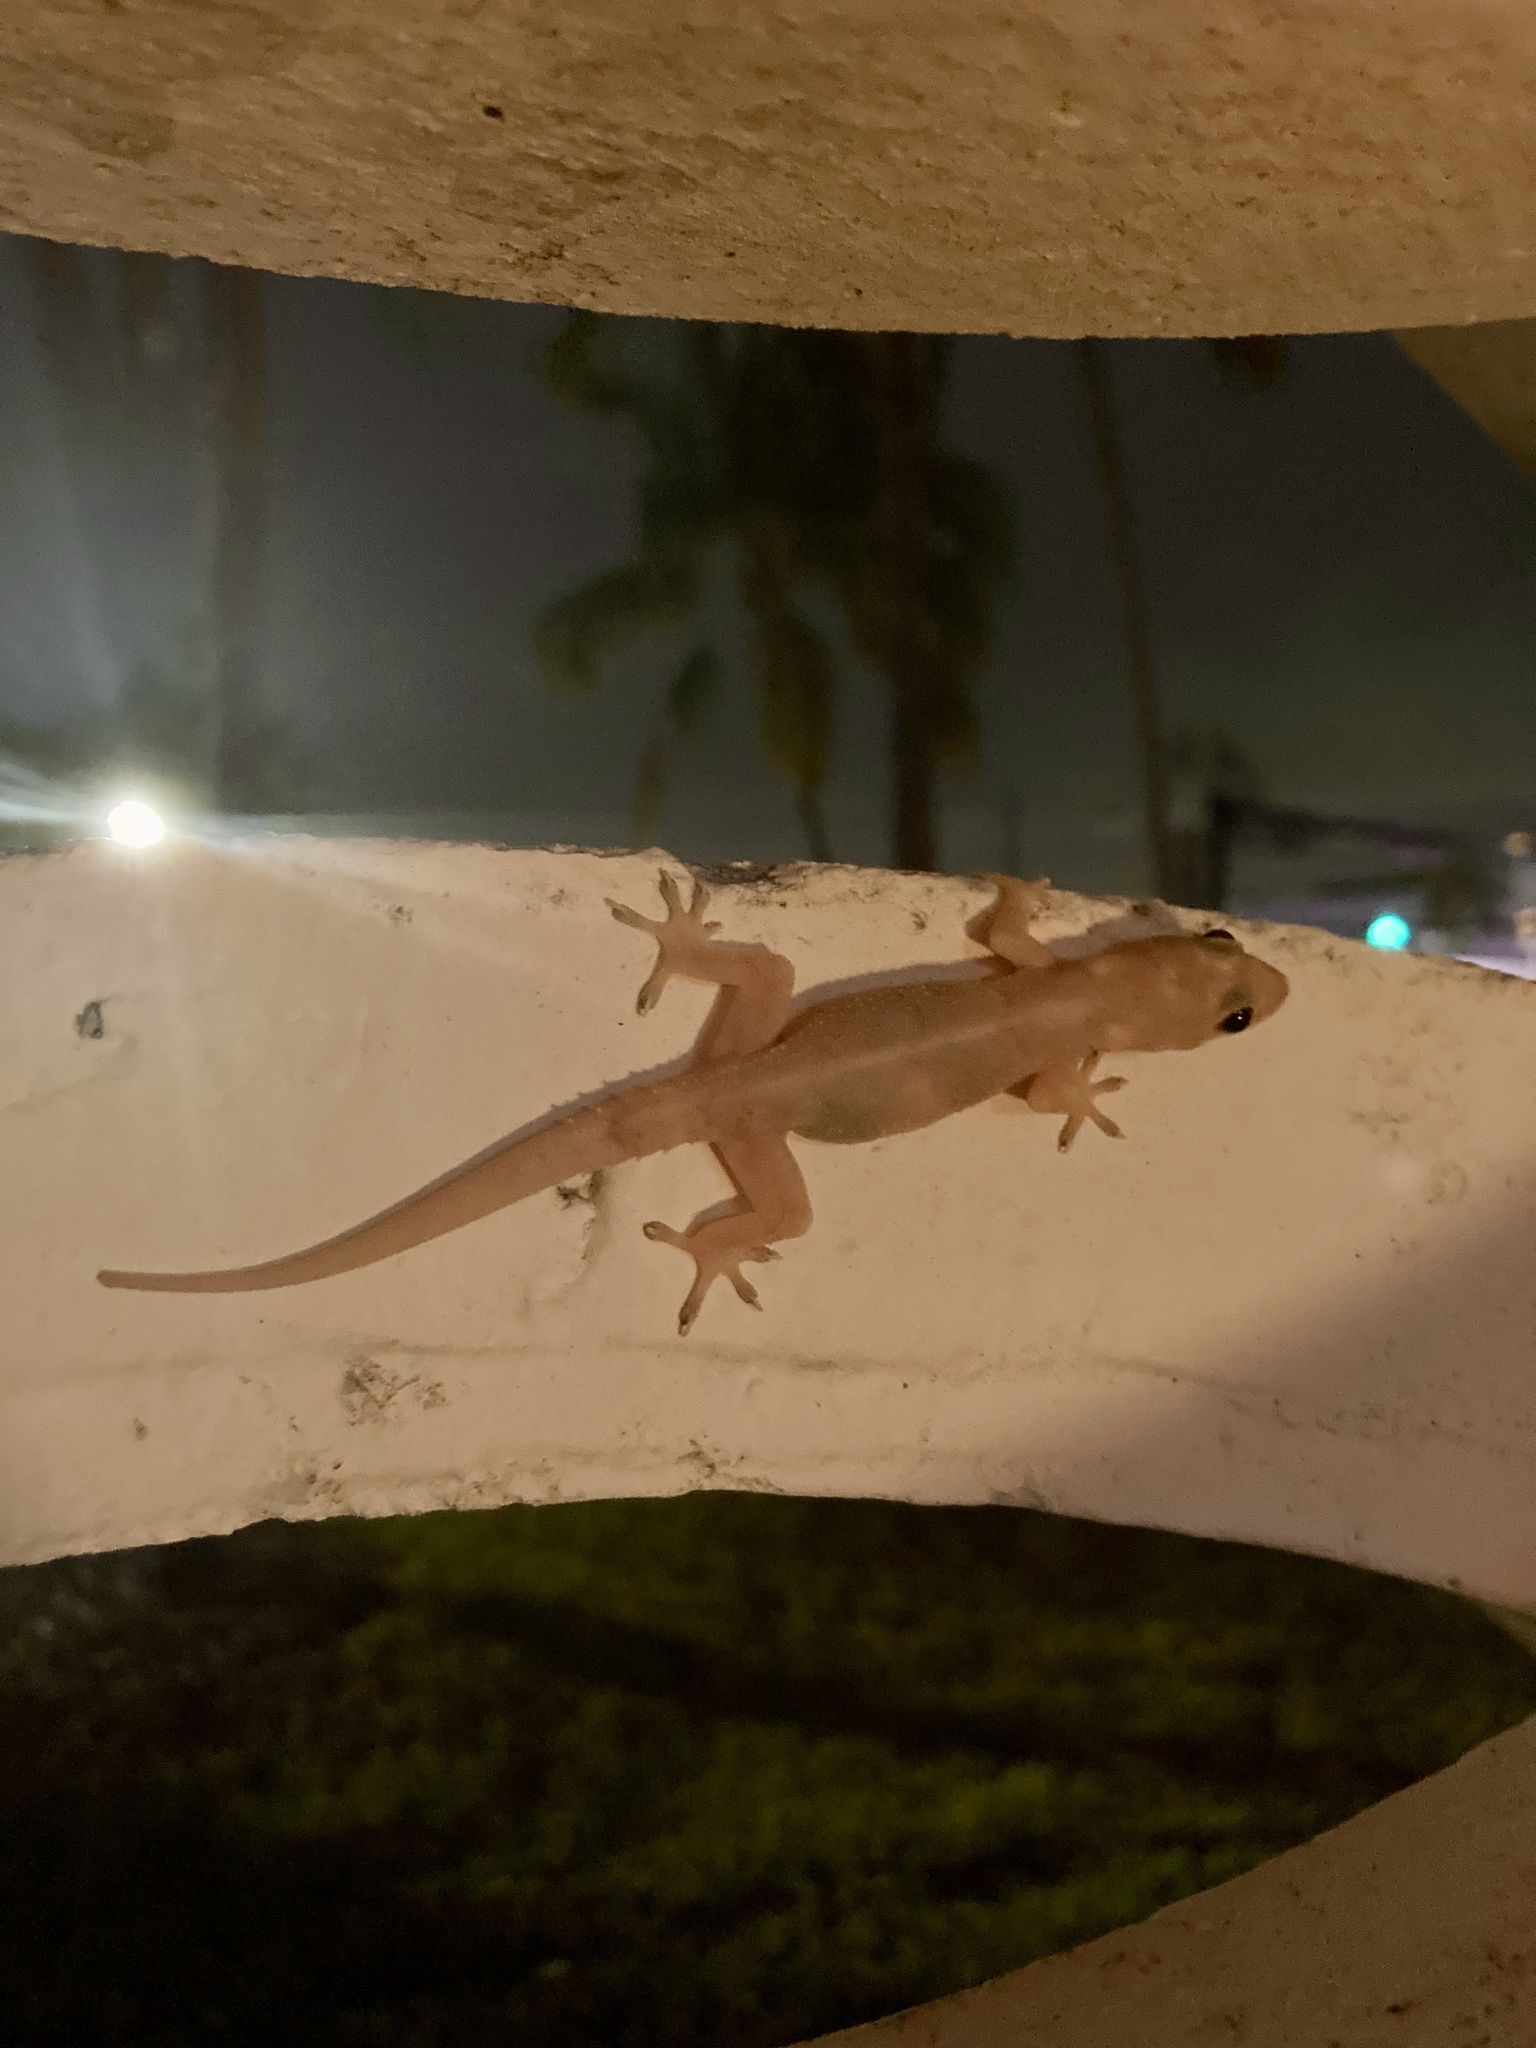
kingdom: Animalia
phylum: Chordata
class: Squamata
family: Gekkonidae
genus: Hemidactylus
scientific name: Hemidactylus mabouia
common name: House gecko
